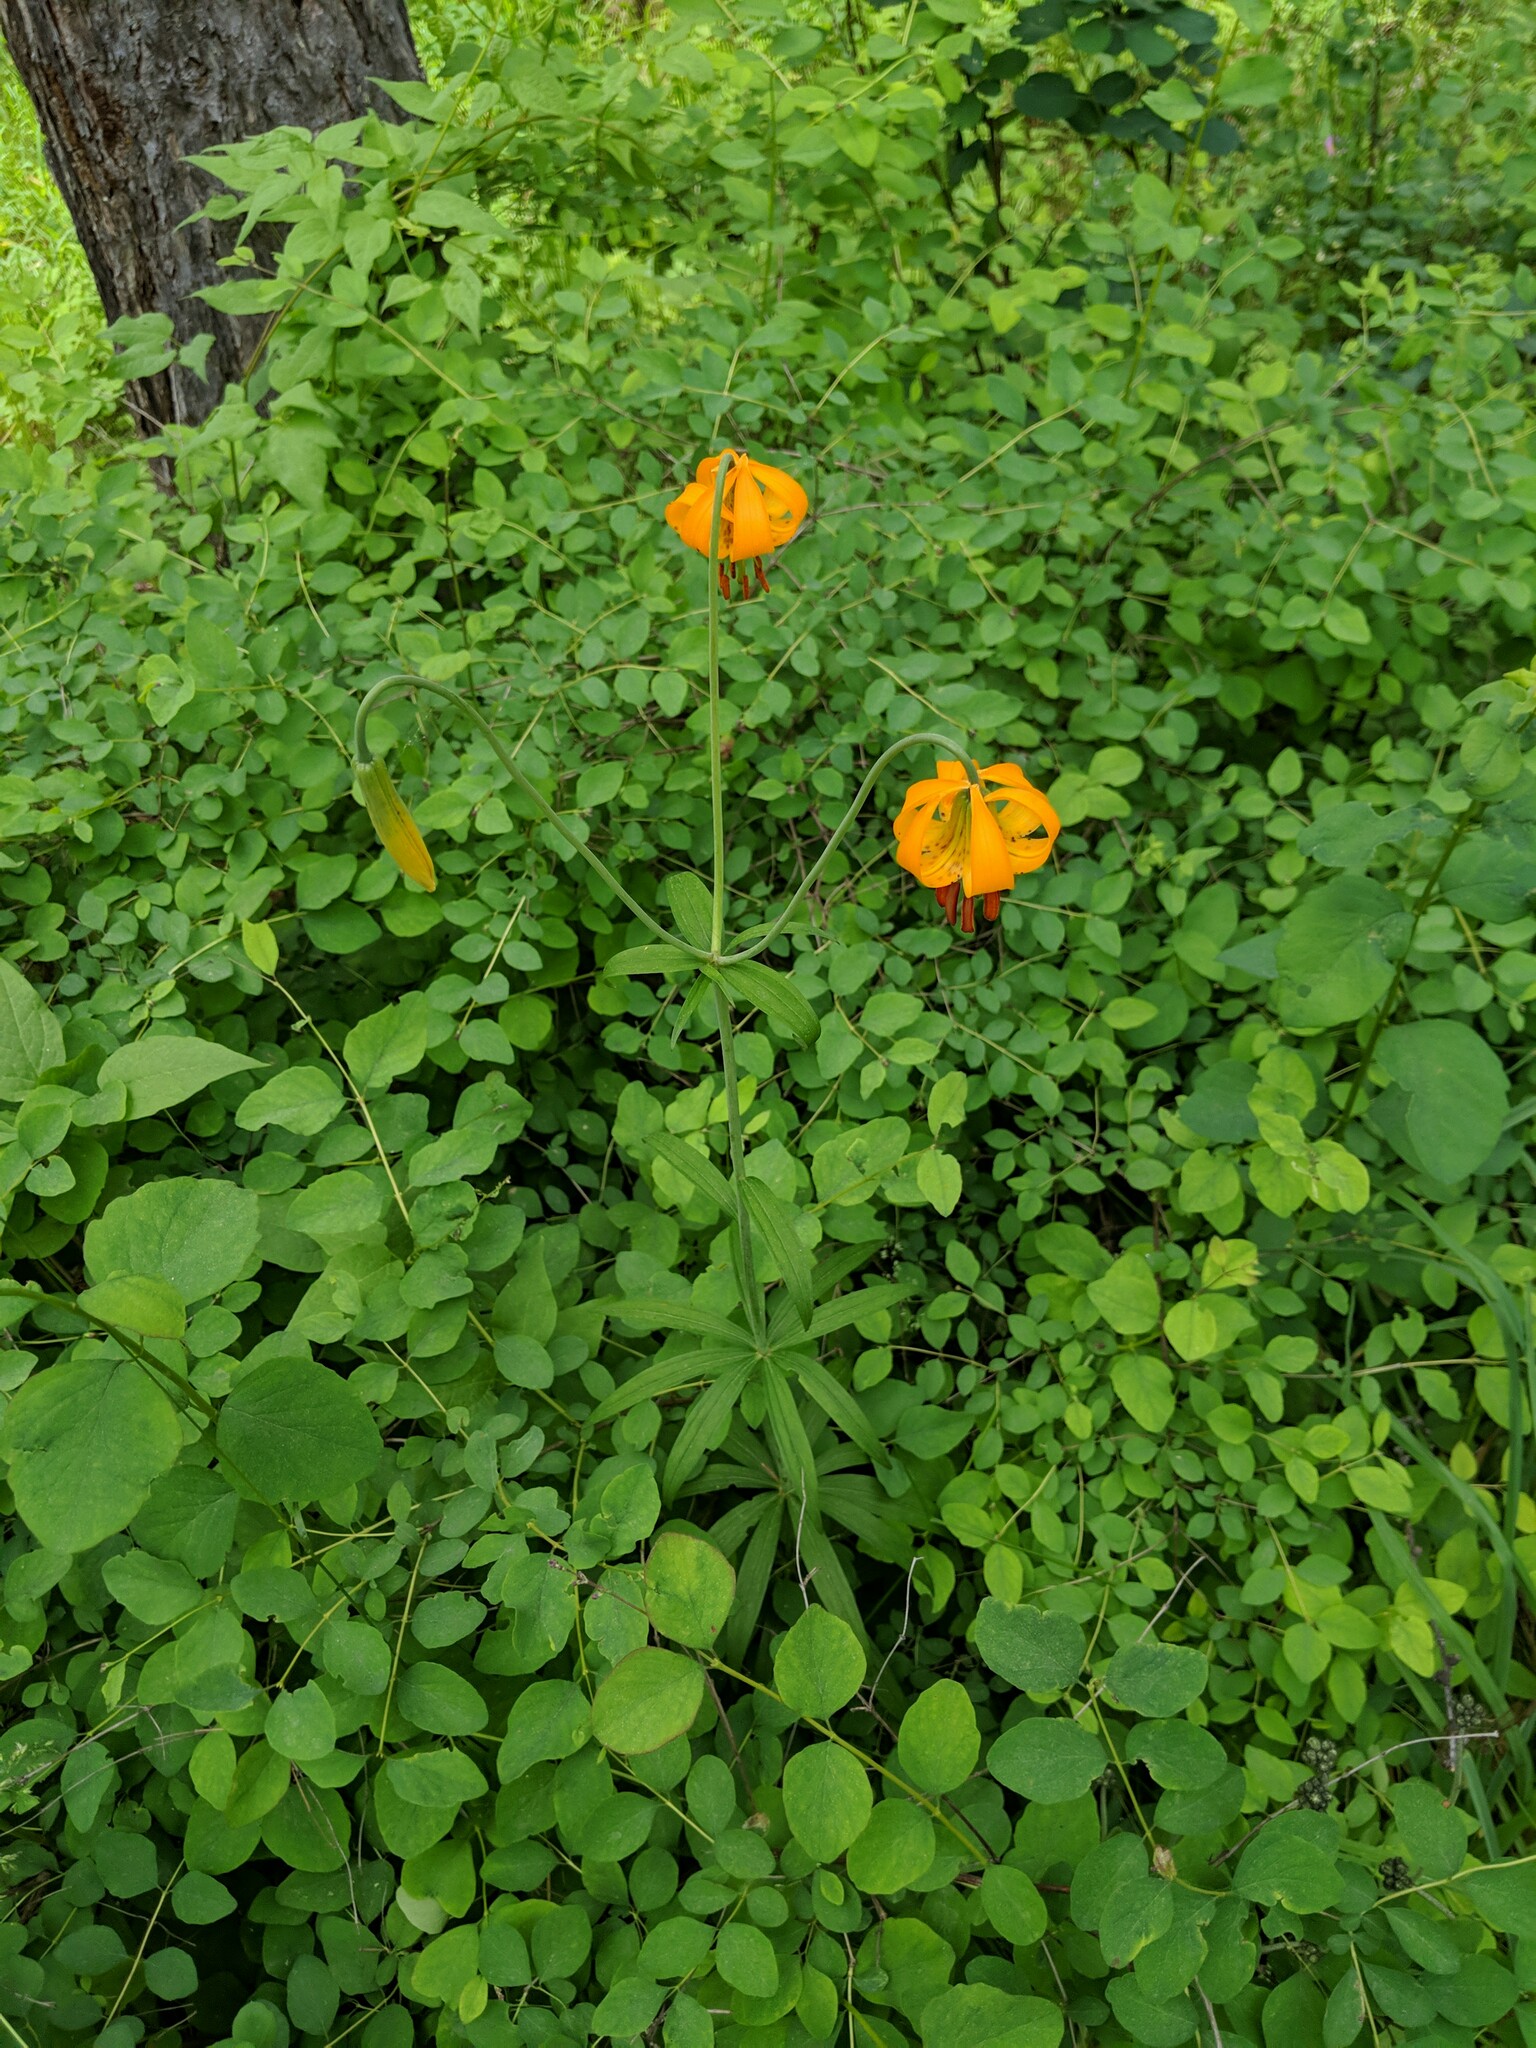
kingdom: Plantae
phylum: Tracheophyta
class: Liliopsida
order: Liliales
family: Liliaceae
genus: Lilium
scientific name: Lilium columbianum
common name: Columbia lily
